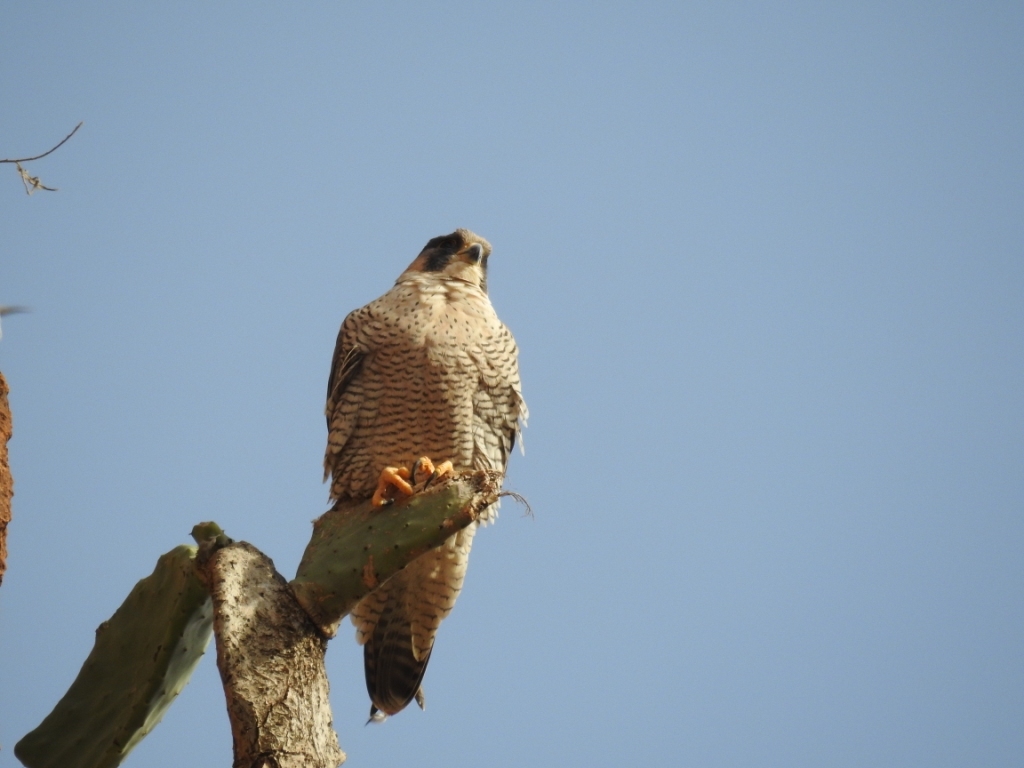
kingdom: Animalia
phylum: Chordata
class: Aves
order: Falconiformes
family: Falconidae
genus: Falco
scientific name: Falco peregrinus
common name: Peregrine falcon
